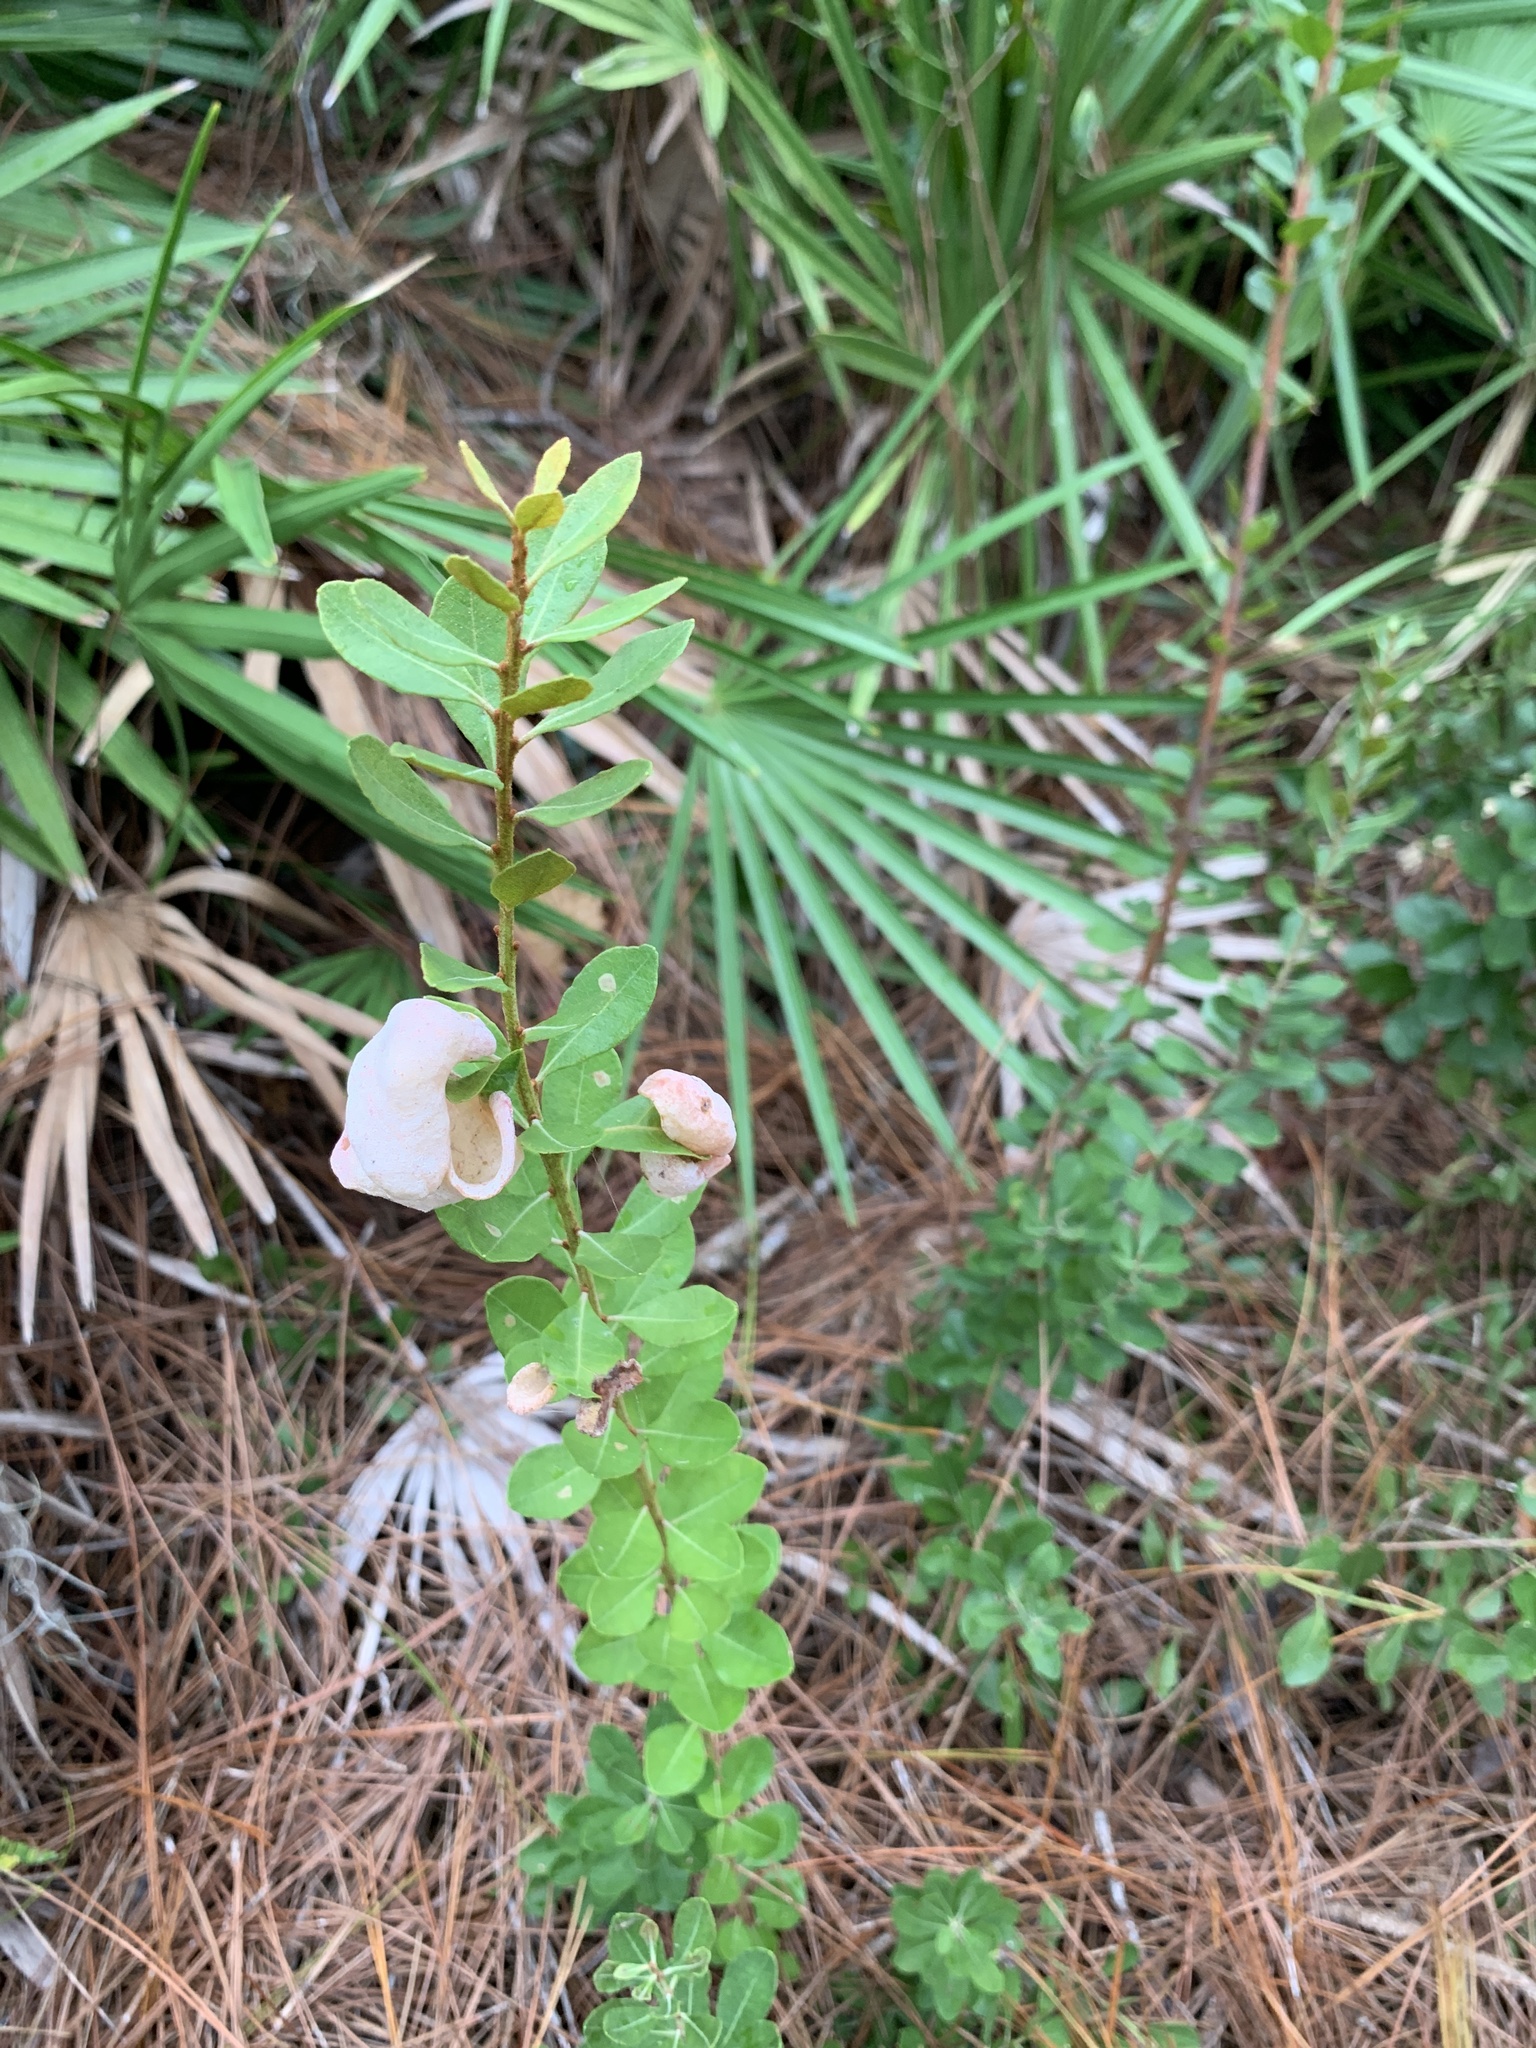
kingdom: Plantae
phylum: Tracheophyta
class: Magnoliopsida
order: Ericales
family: Ericaceae
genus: Lyonia
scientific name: Lyonia fruticosa
